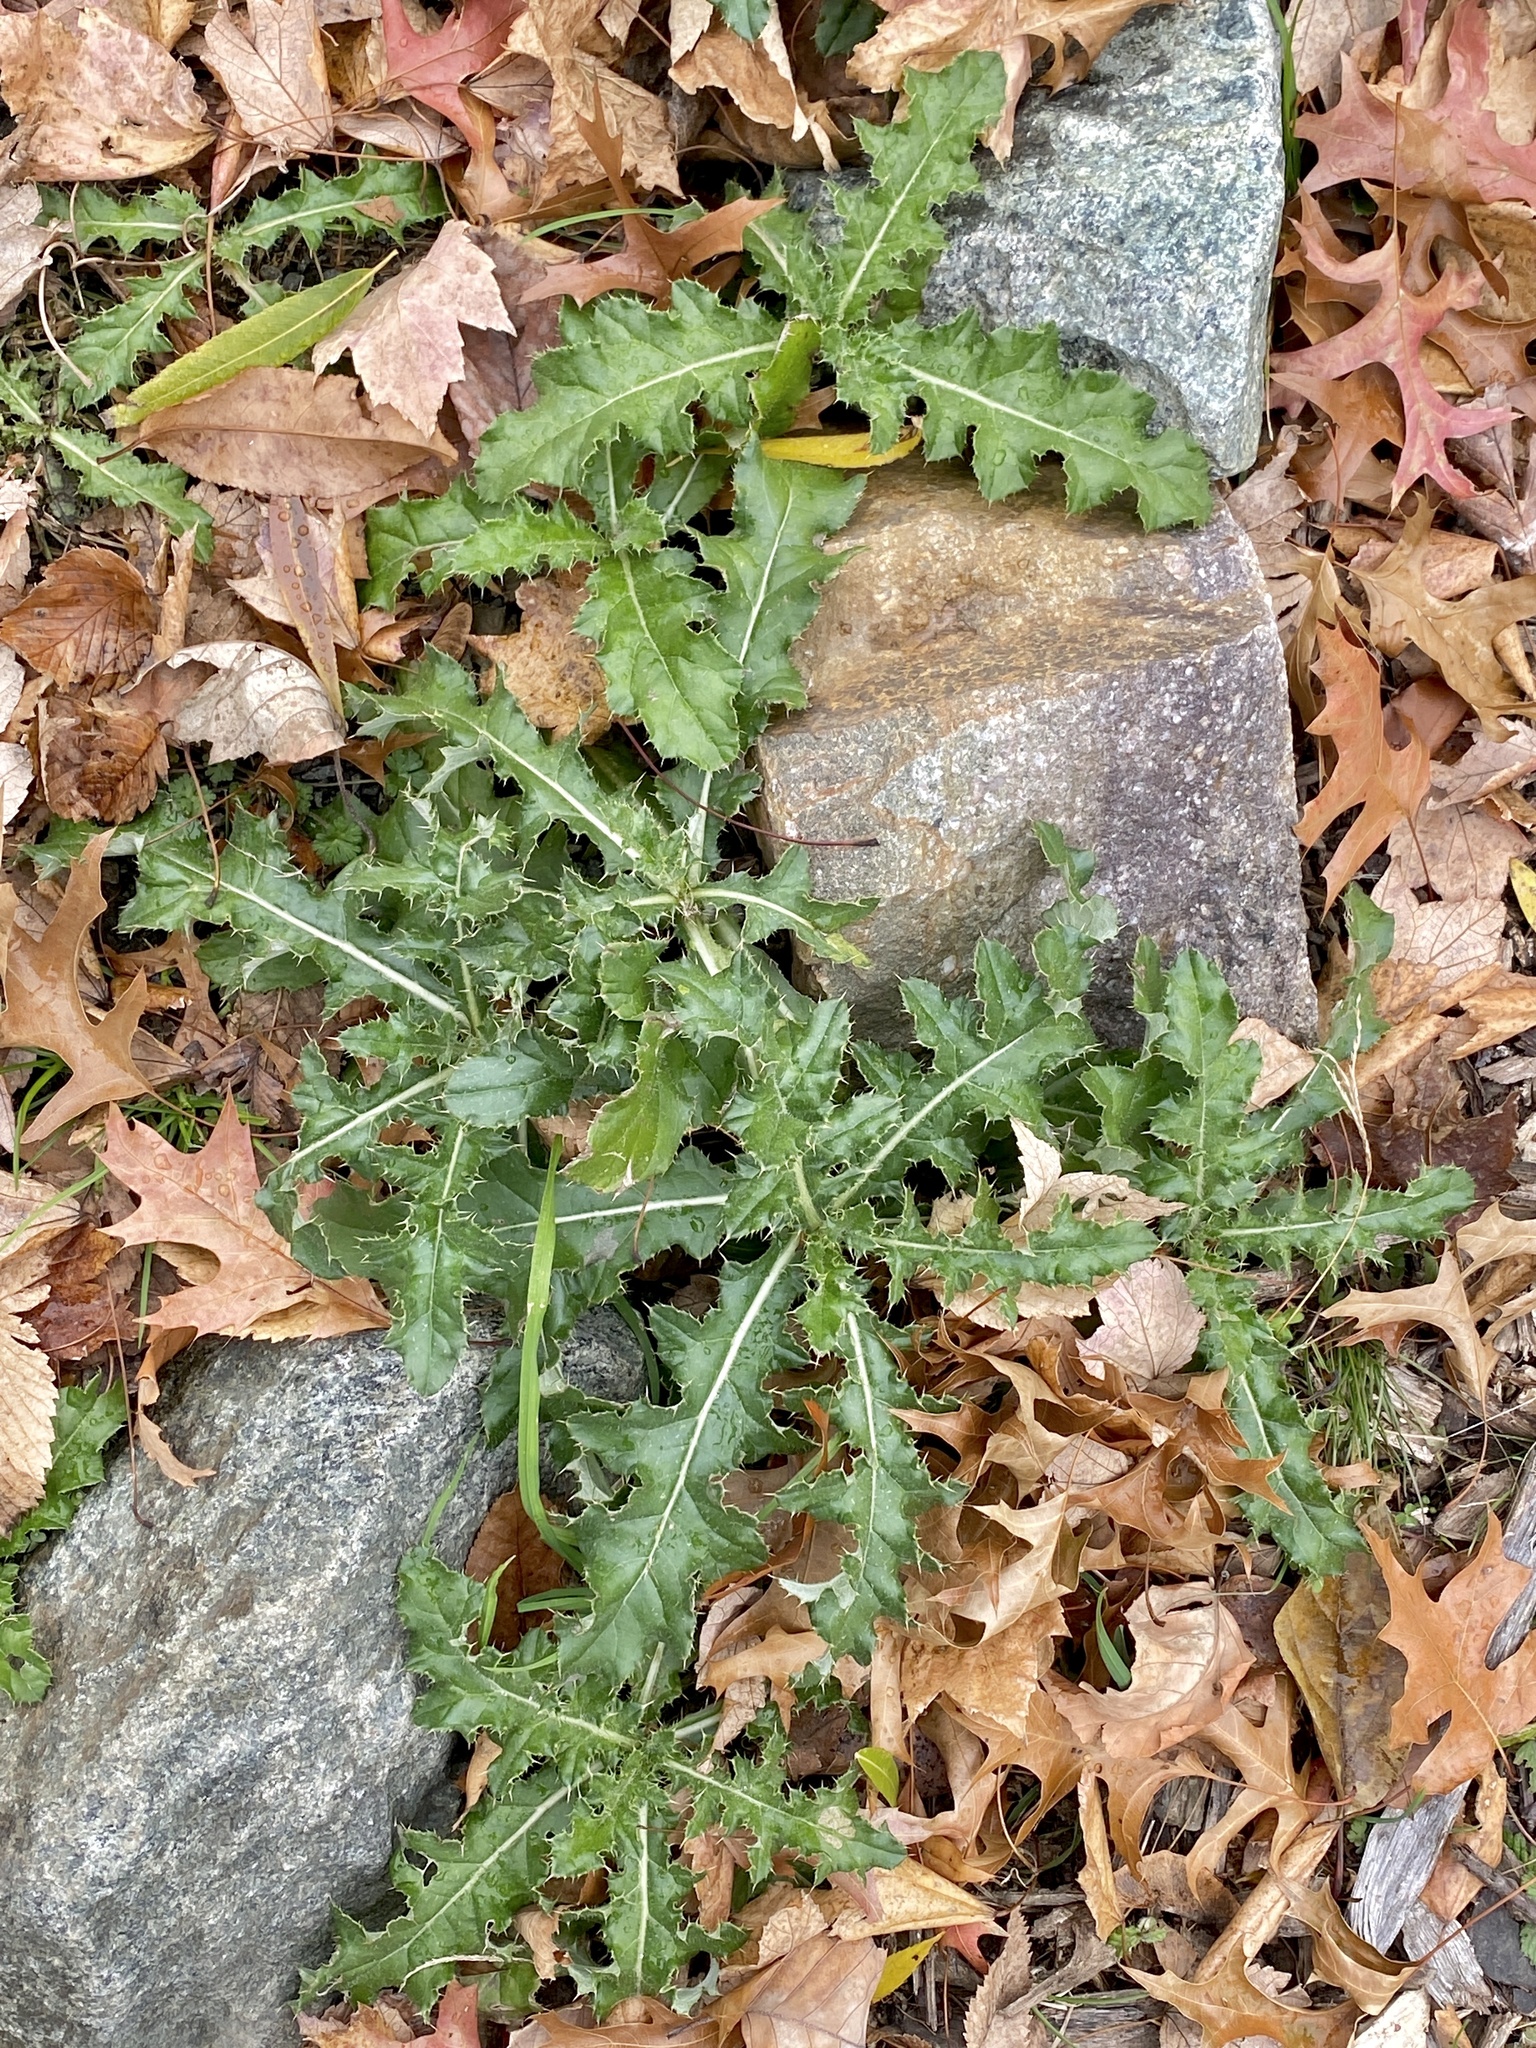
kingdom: Plantae
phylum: Tracheophyta
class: Magnoliopsida
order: Asterales
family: Asteraceae
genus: Cirsium
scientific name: Cirsium arvense
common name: Creeping thistle
